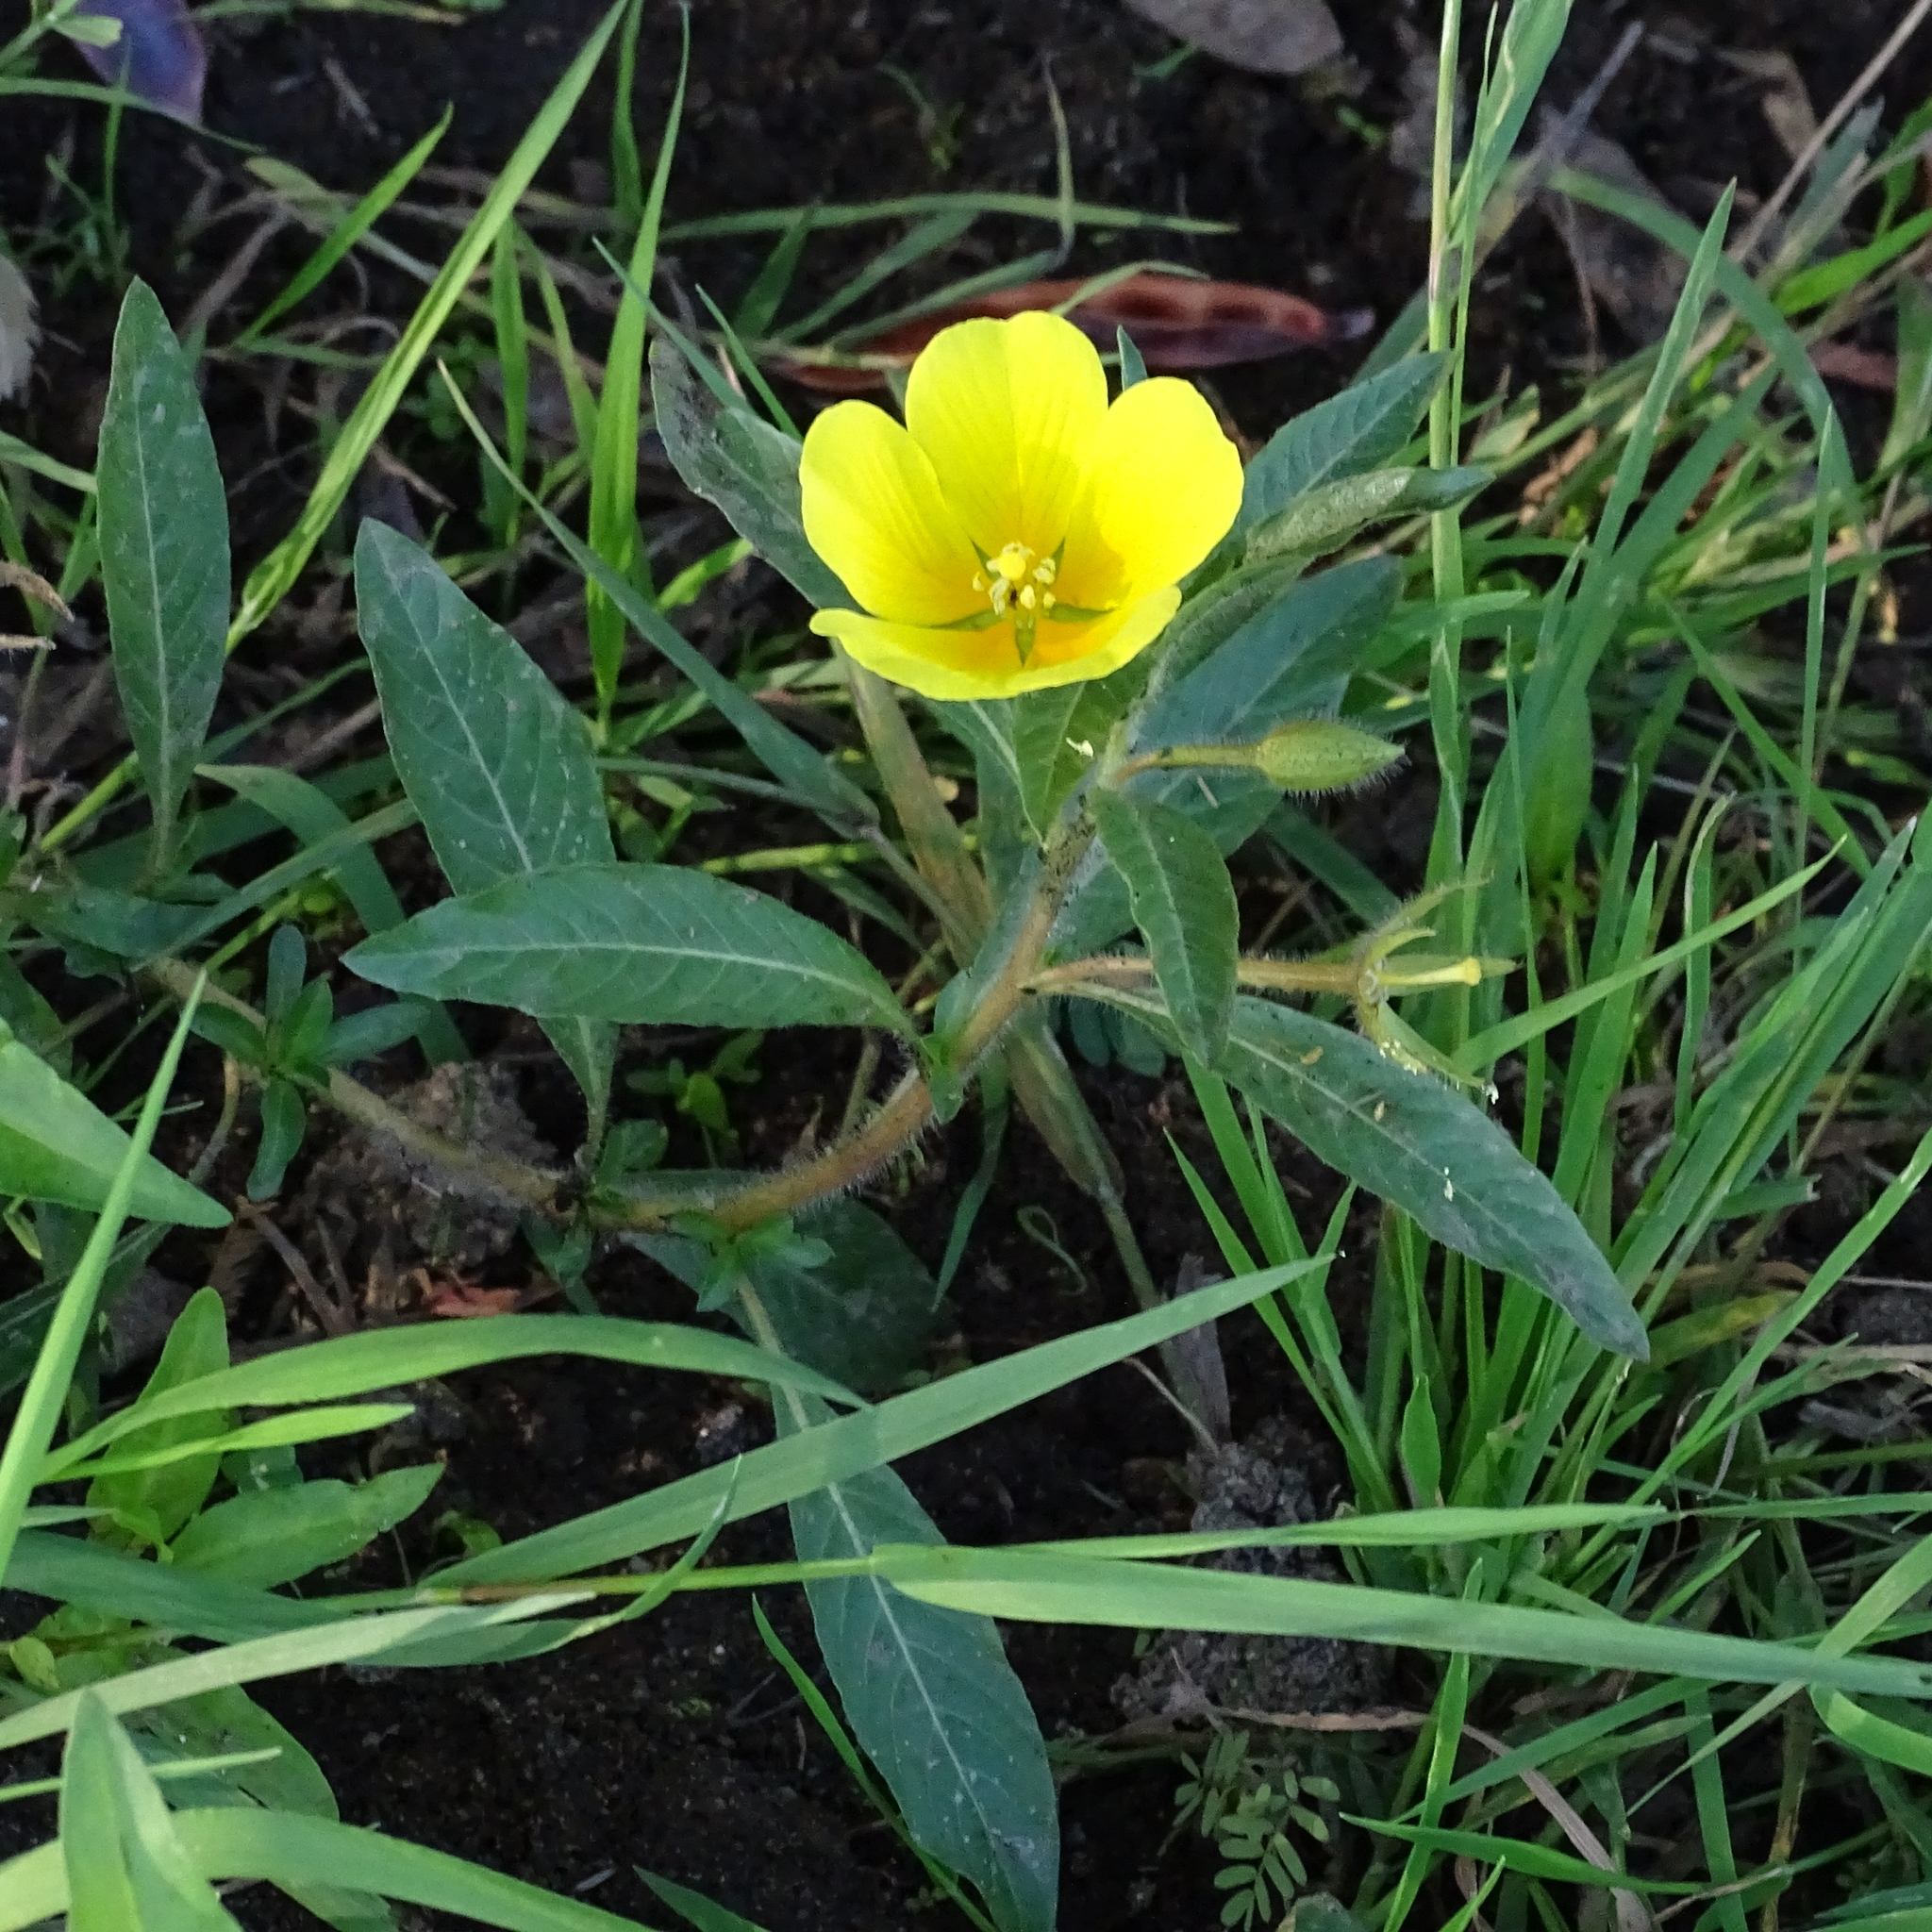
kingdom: Plantae
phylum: Tracheophyta
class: Magnoliopsida
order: Myrtales
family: Onagraceae
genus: Ludwigia
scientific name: Ludwigia peploides
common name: Floating primrose-willow
